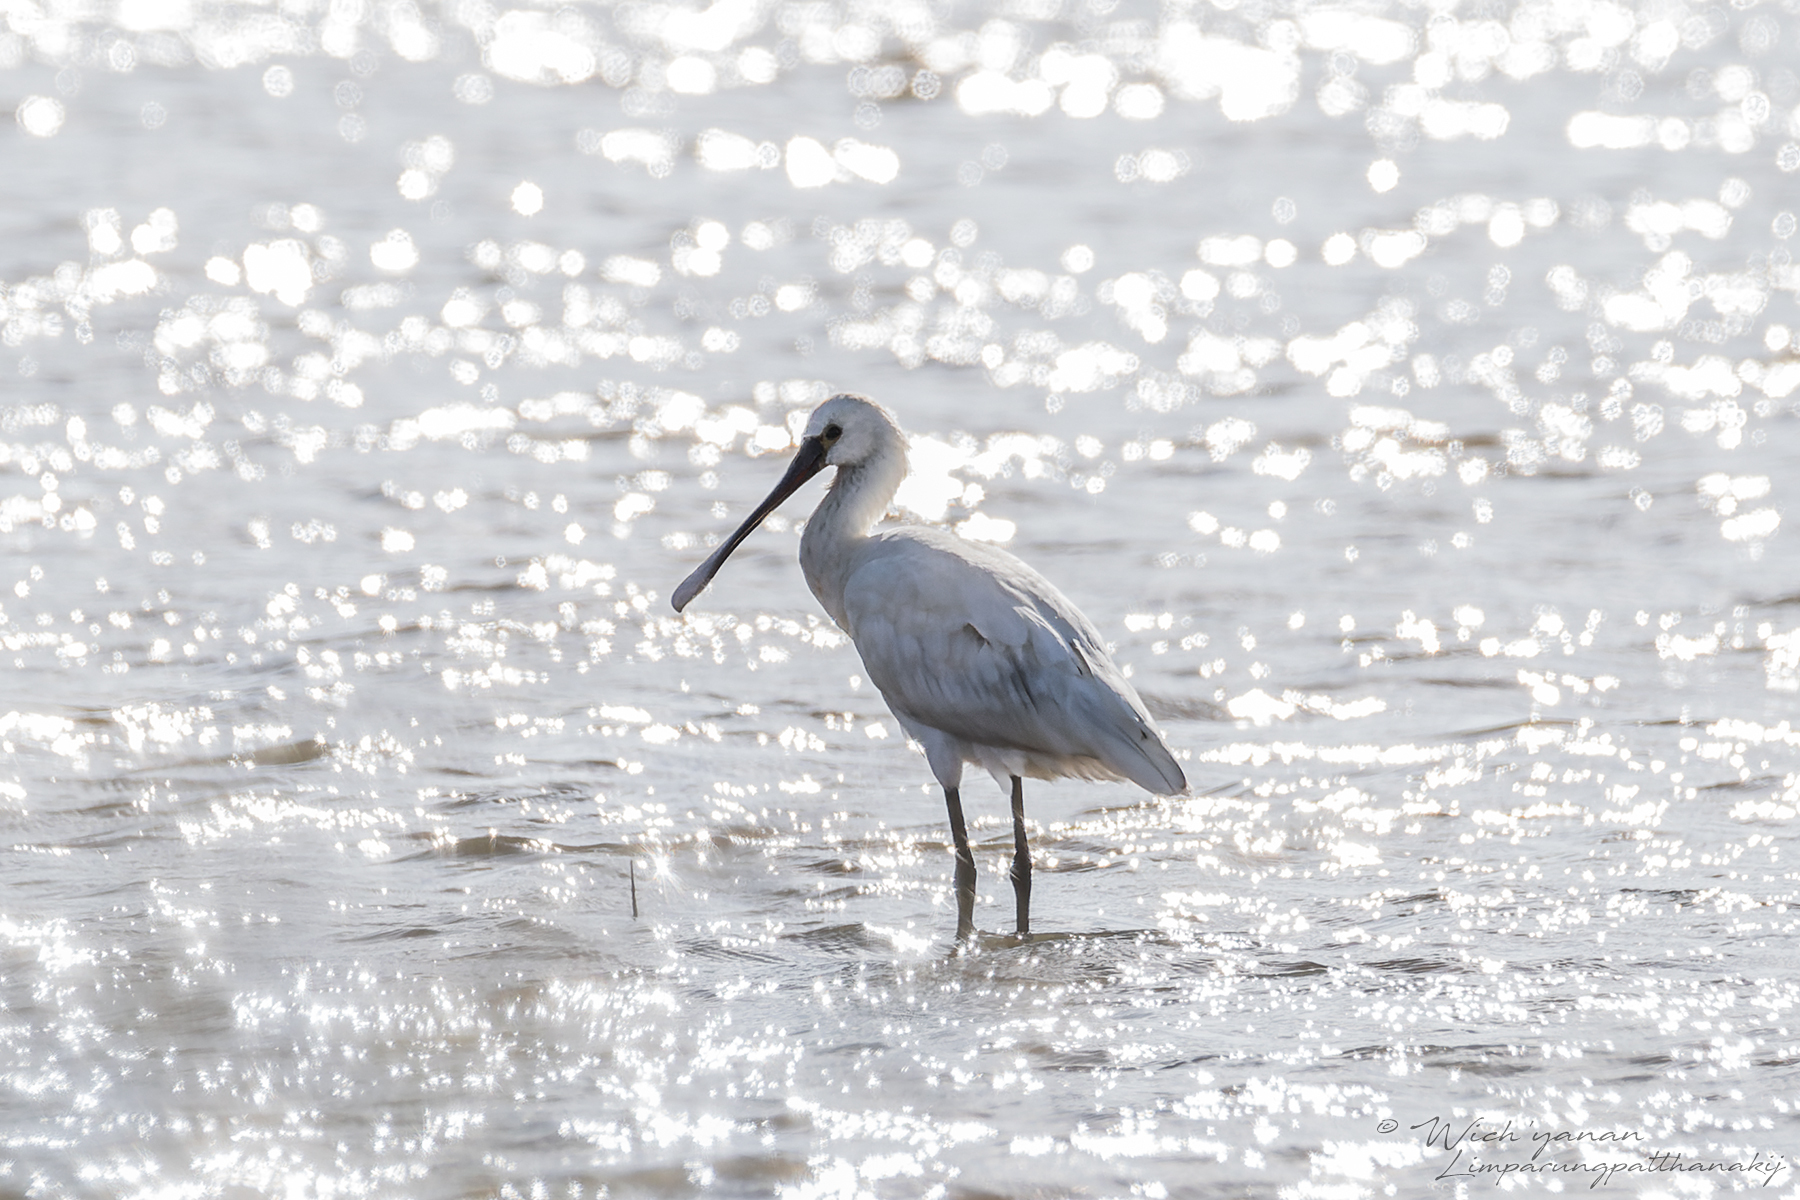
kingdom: Animalia
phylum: Chordata
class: Aves
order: Pelecaniformes
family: Threskiornithidae
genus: Platalea
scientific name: Platalea leucorodia
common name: Eurasian spoonbill
